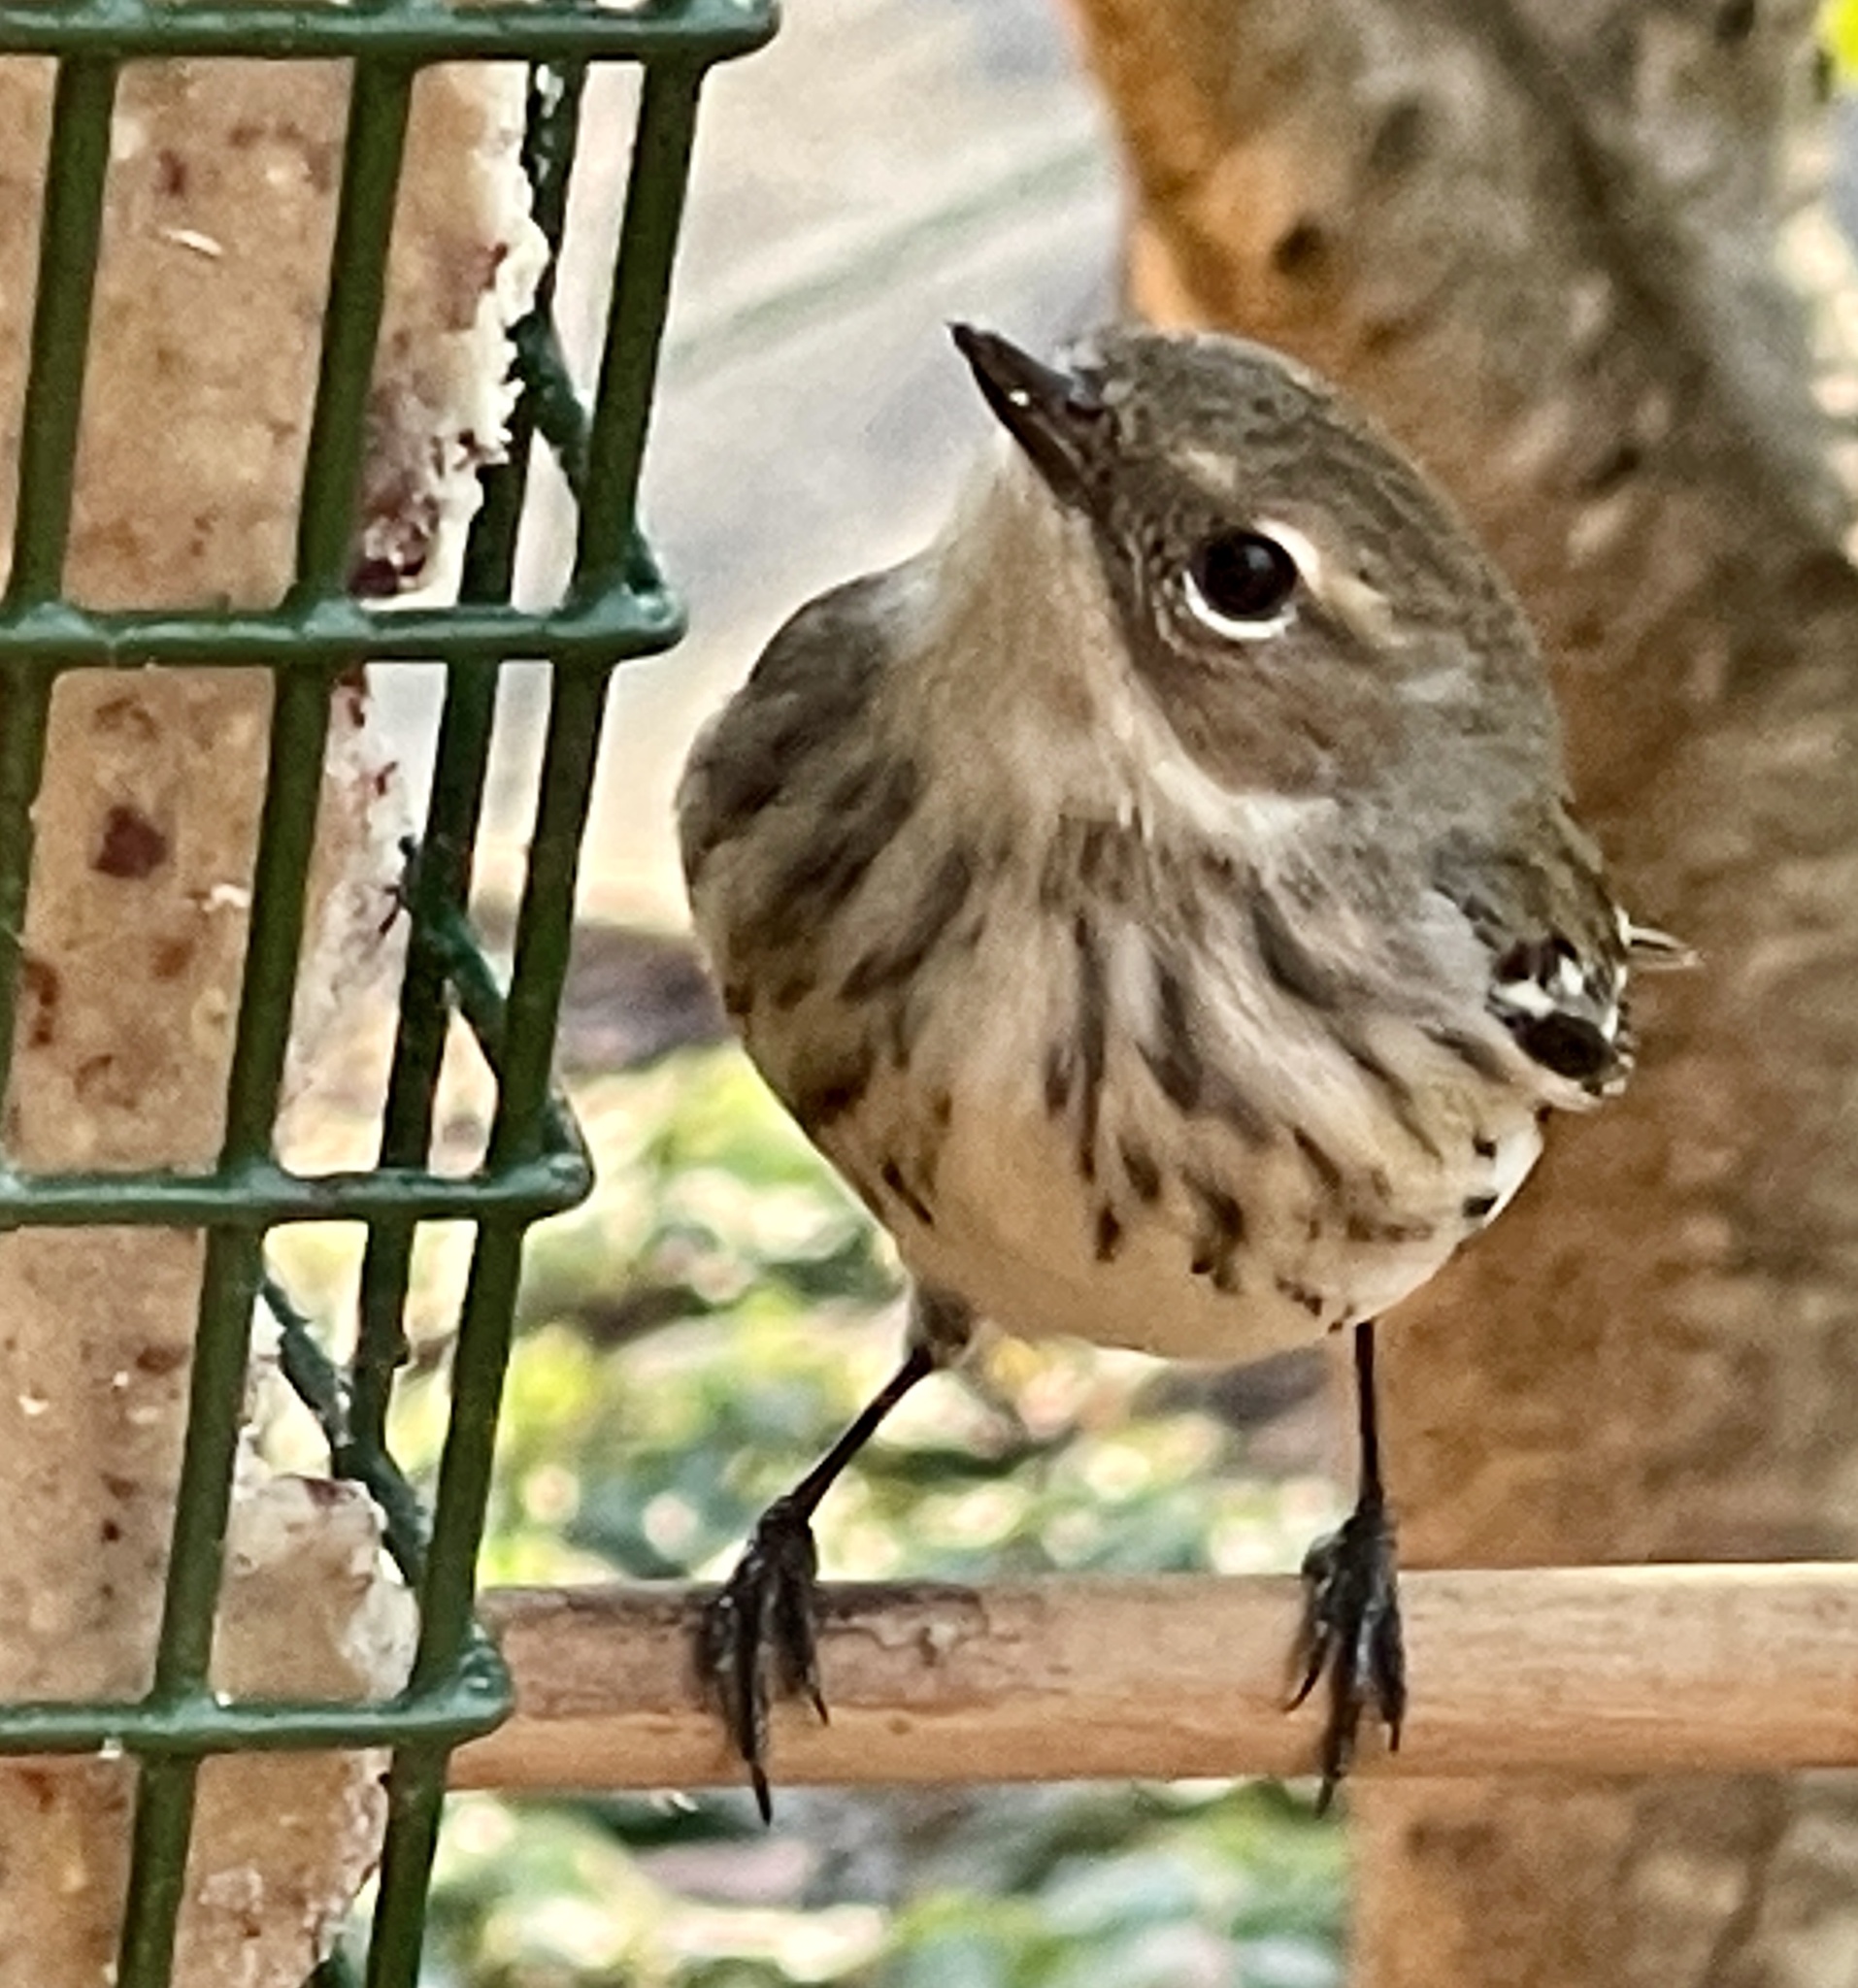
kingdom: Animalia
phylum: Chordata
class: Aves
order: Passeriformes
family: Parulidae
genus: Setophaga
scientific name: Setophaga coronata
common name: Myrtle warbler
